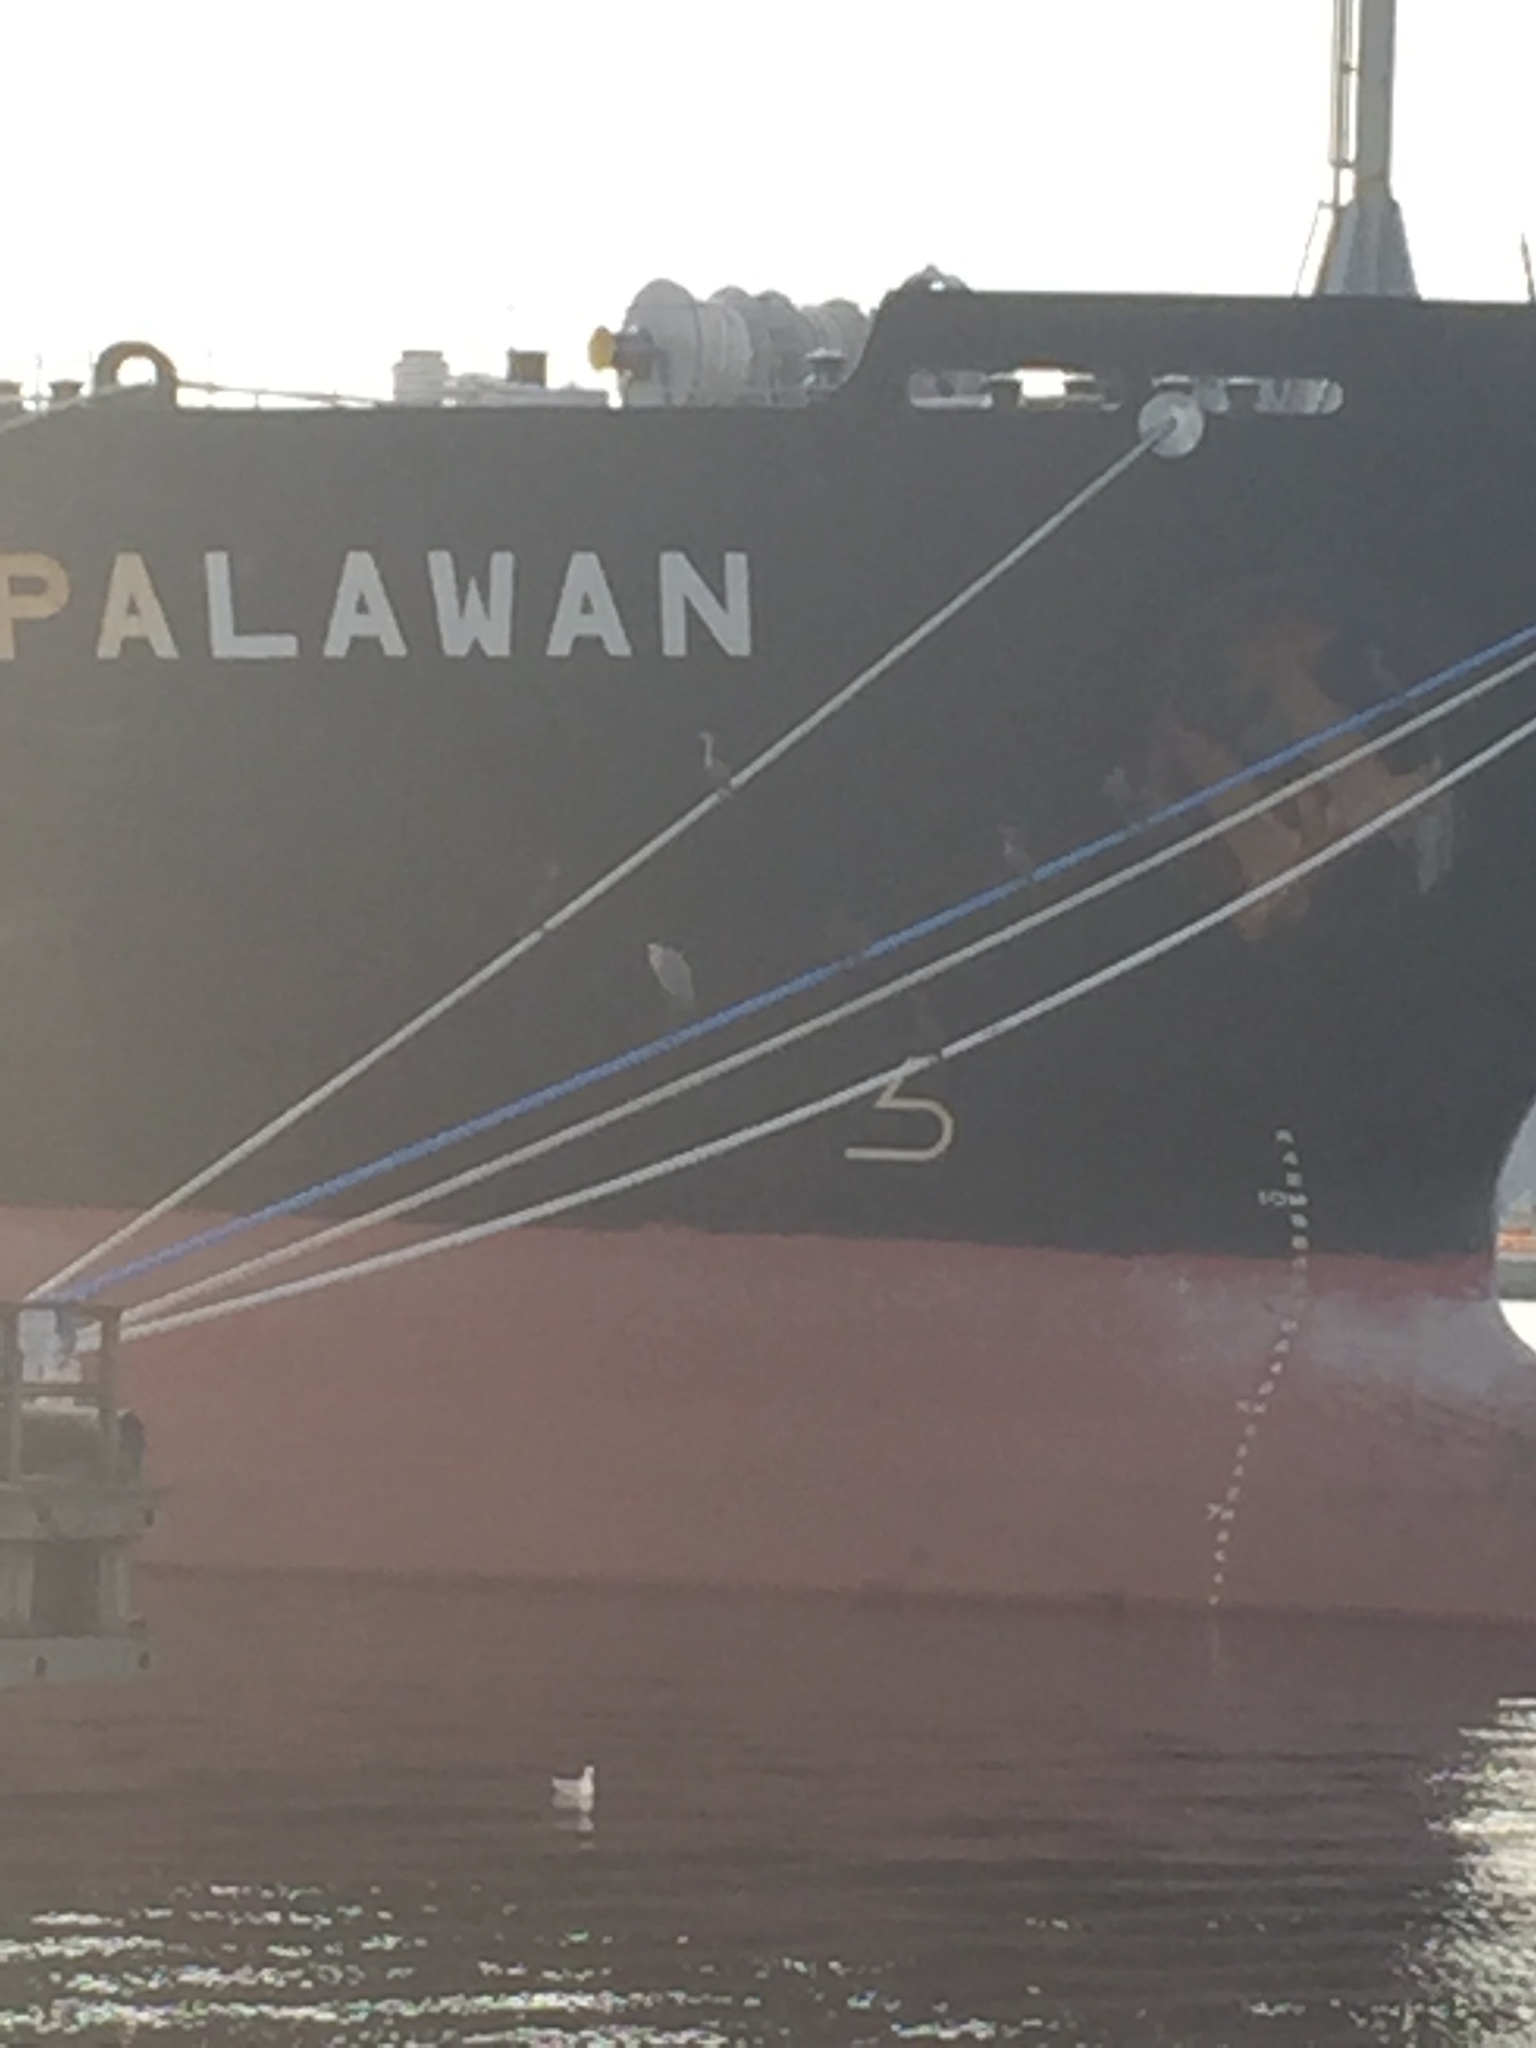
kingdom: Animalia
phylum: Chordata
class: Aves
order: Pelecaniformes
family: Ardeidae
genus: Ardea
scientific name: Ardea herodias
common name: Great blue heron
